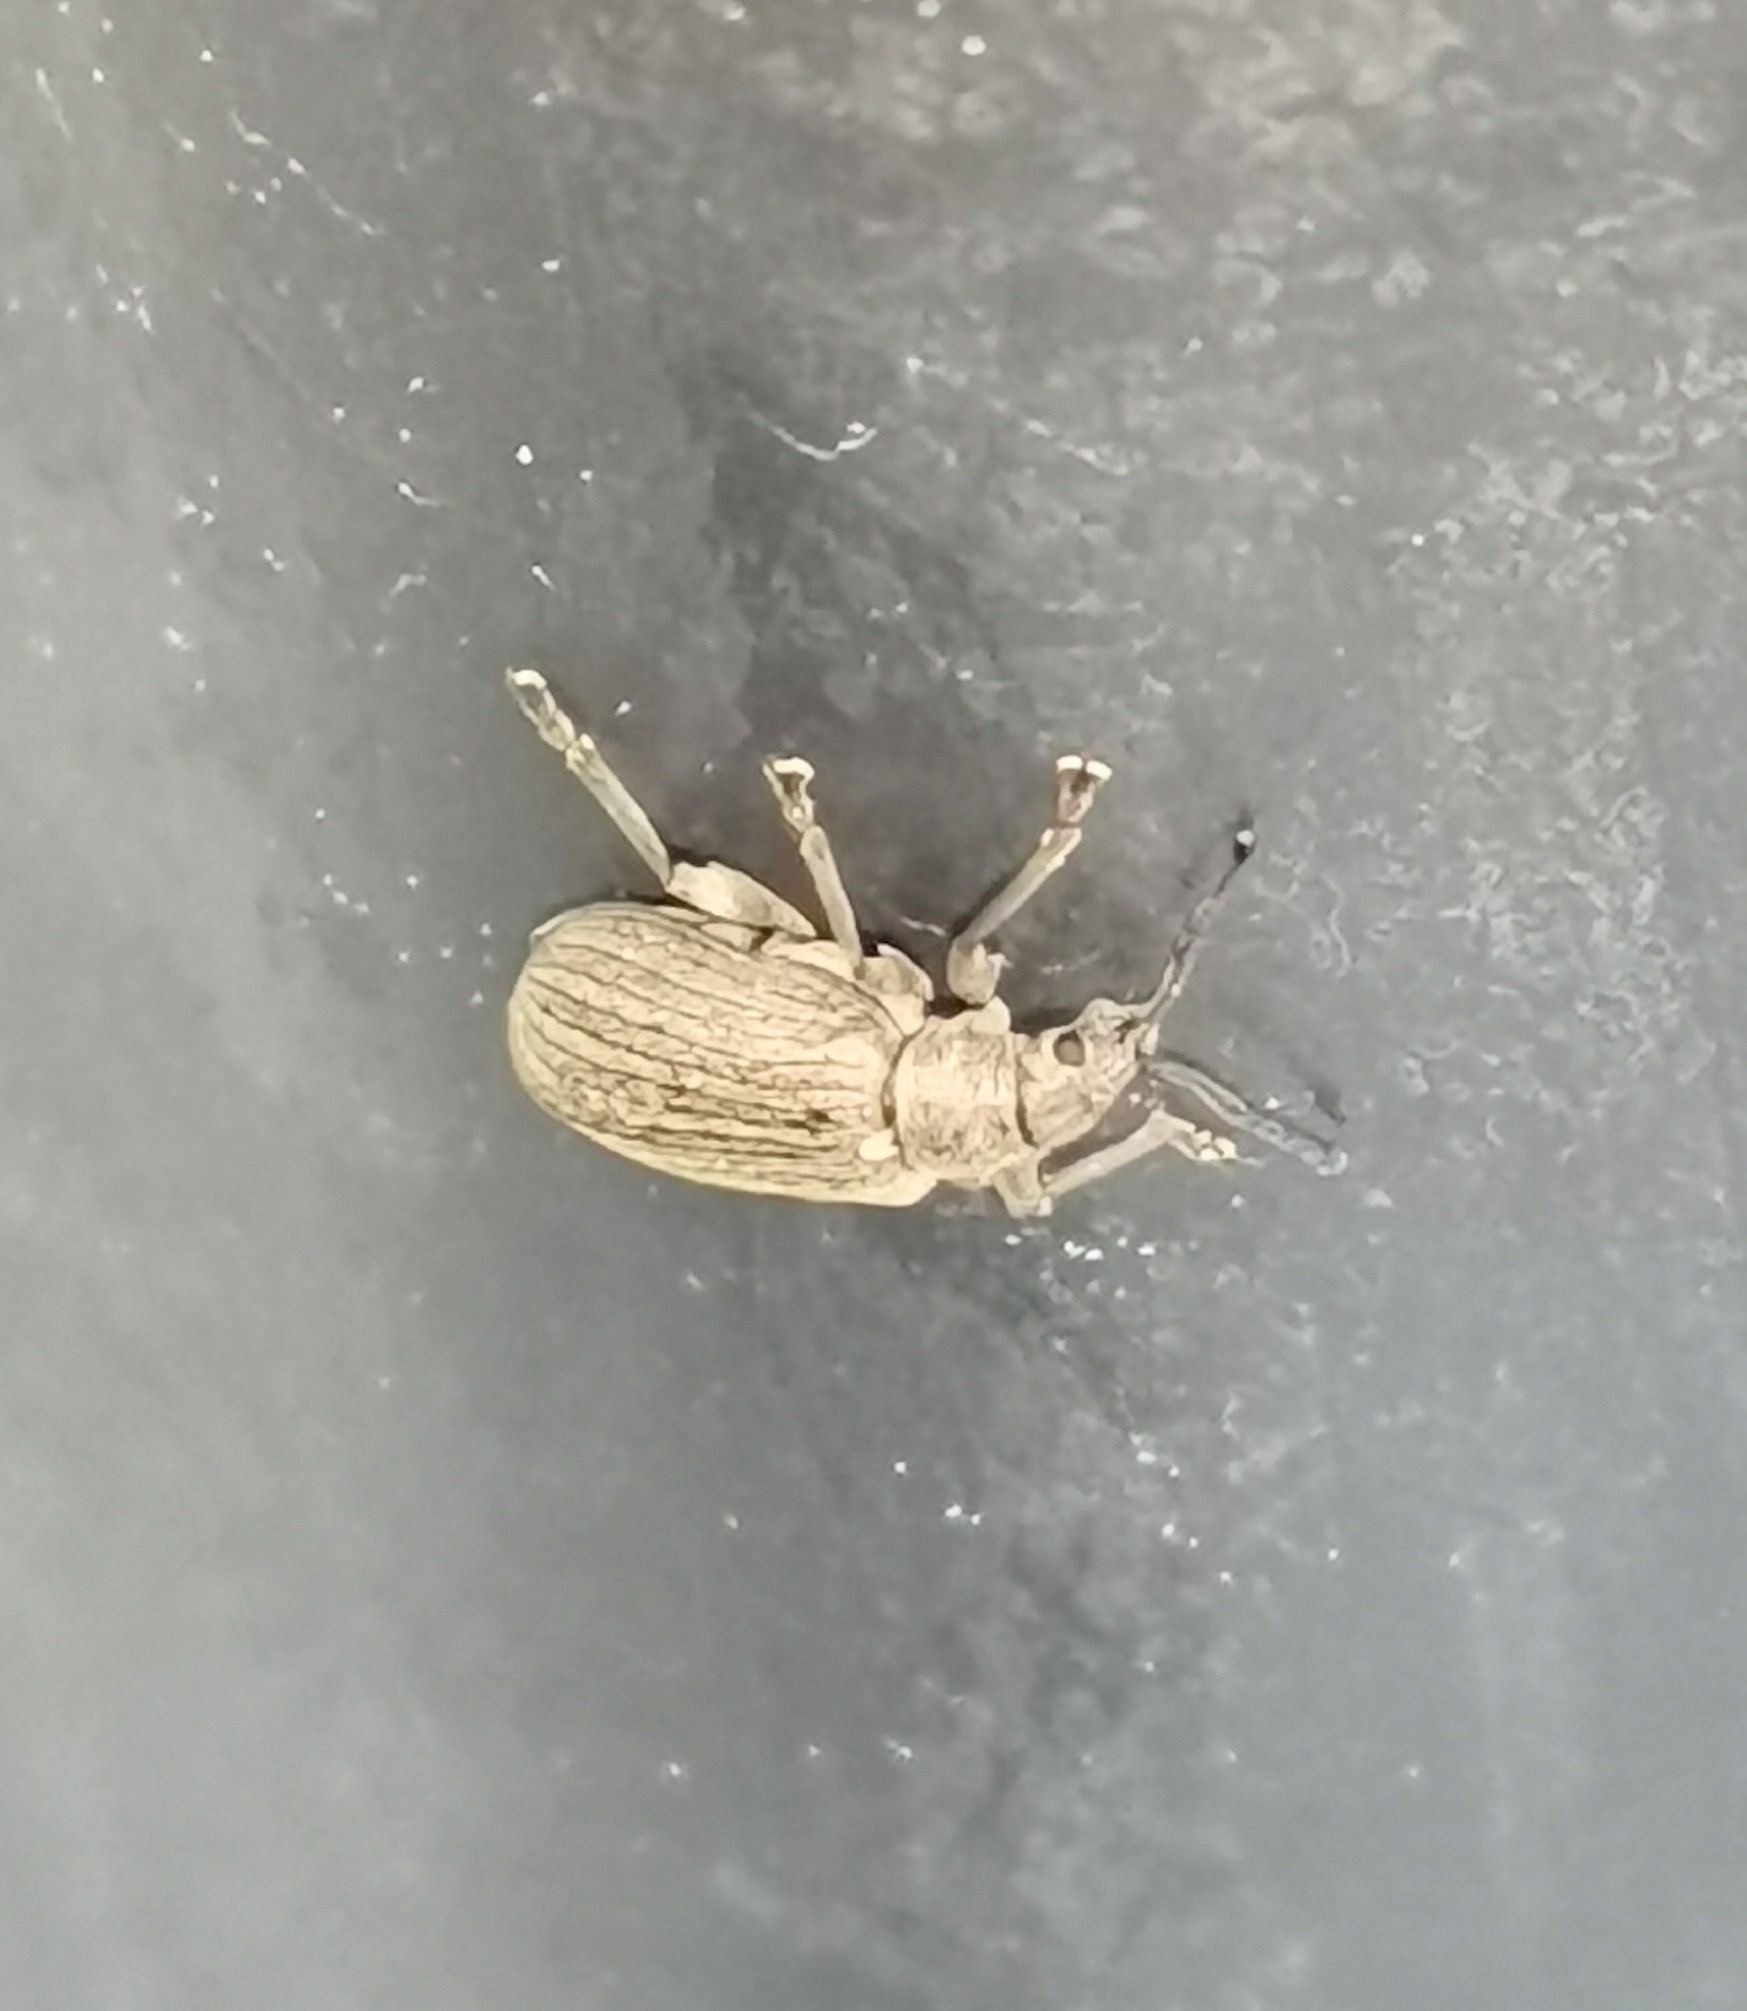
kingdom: Animalia
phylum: Arthropoda
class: Insecta
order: Coleoptera
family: Curculionidae
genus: Phyllobius
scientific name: Phyllobius pyri
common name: Common leaf weevil
